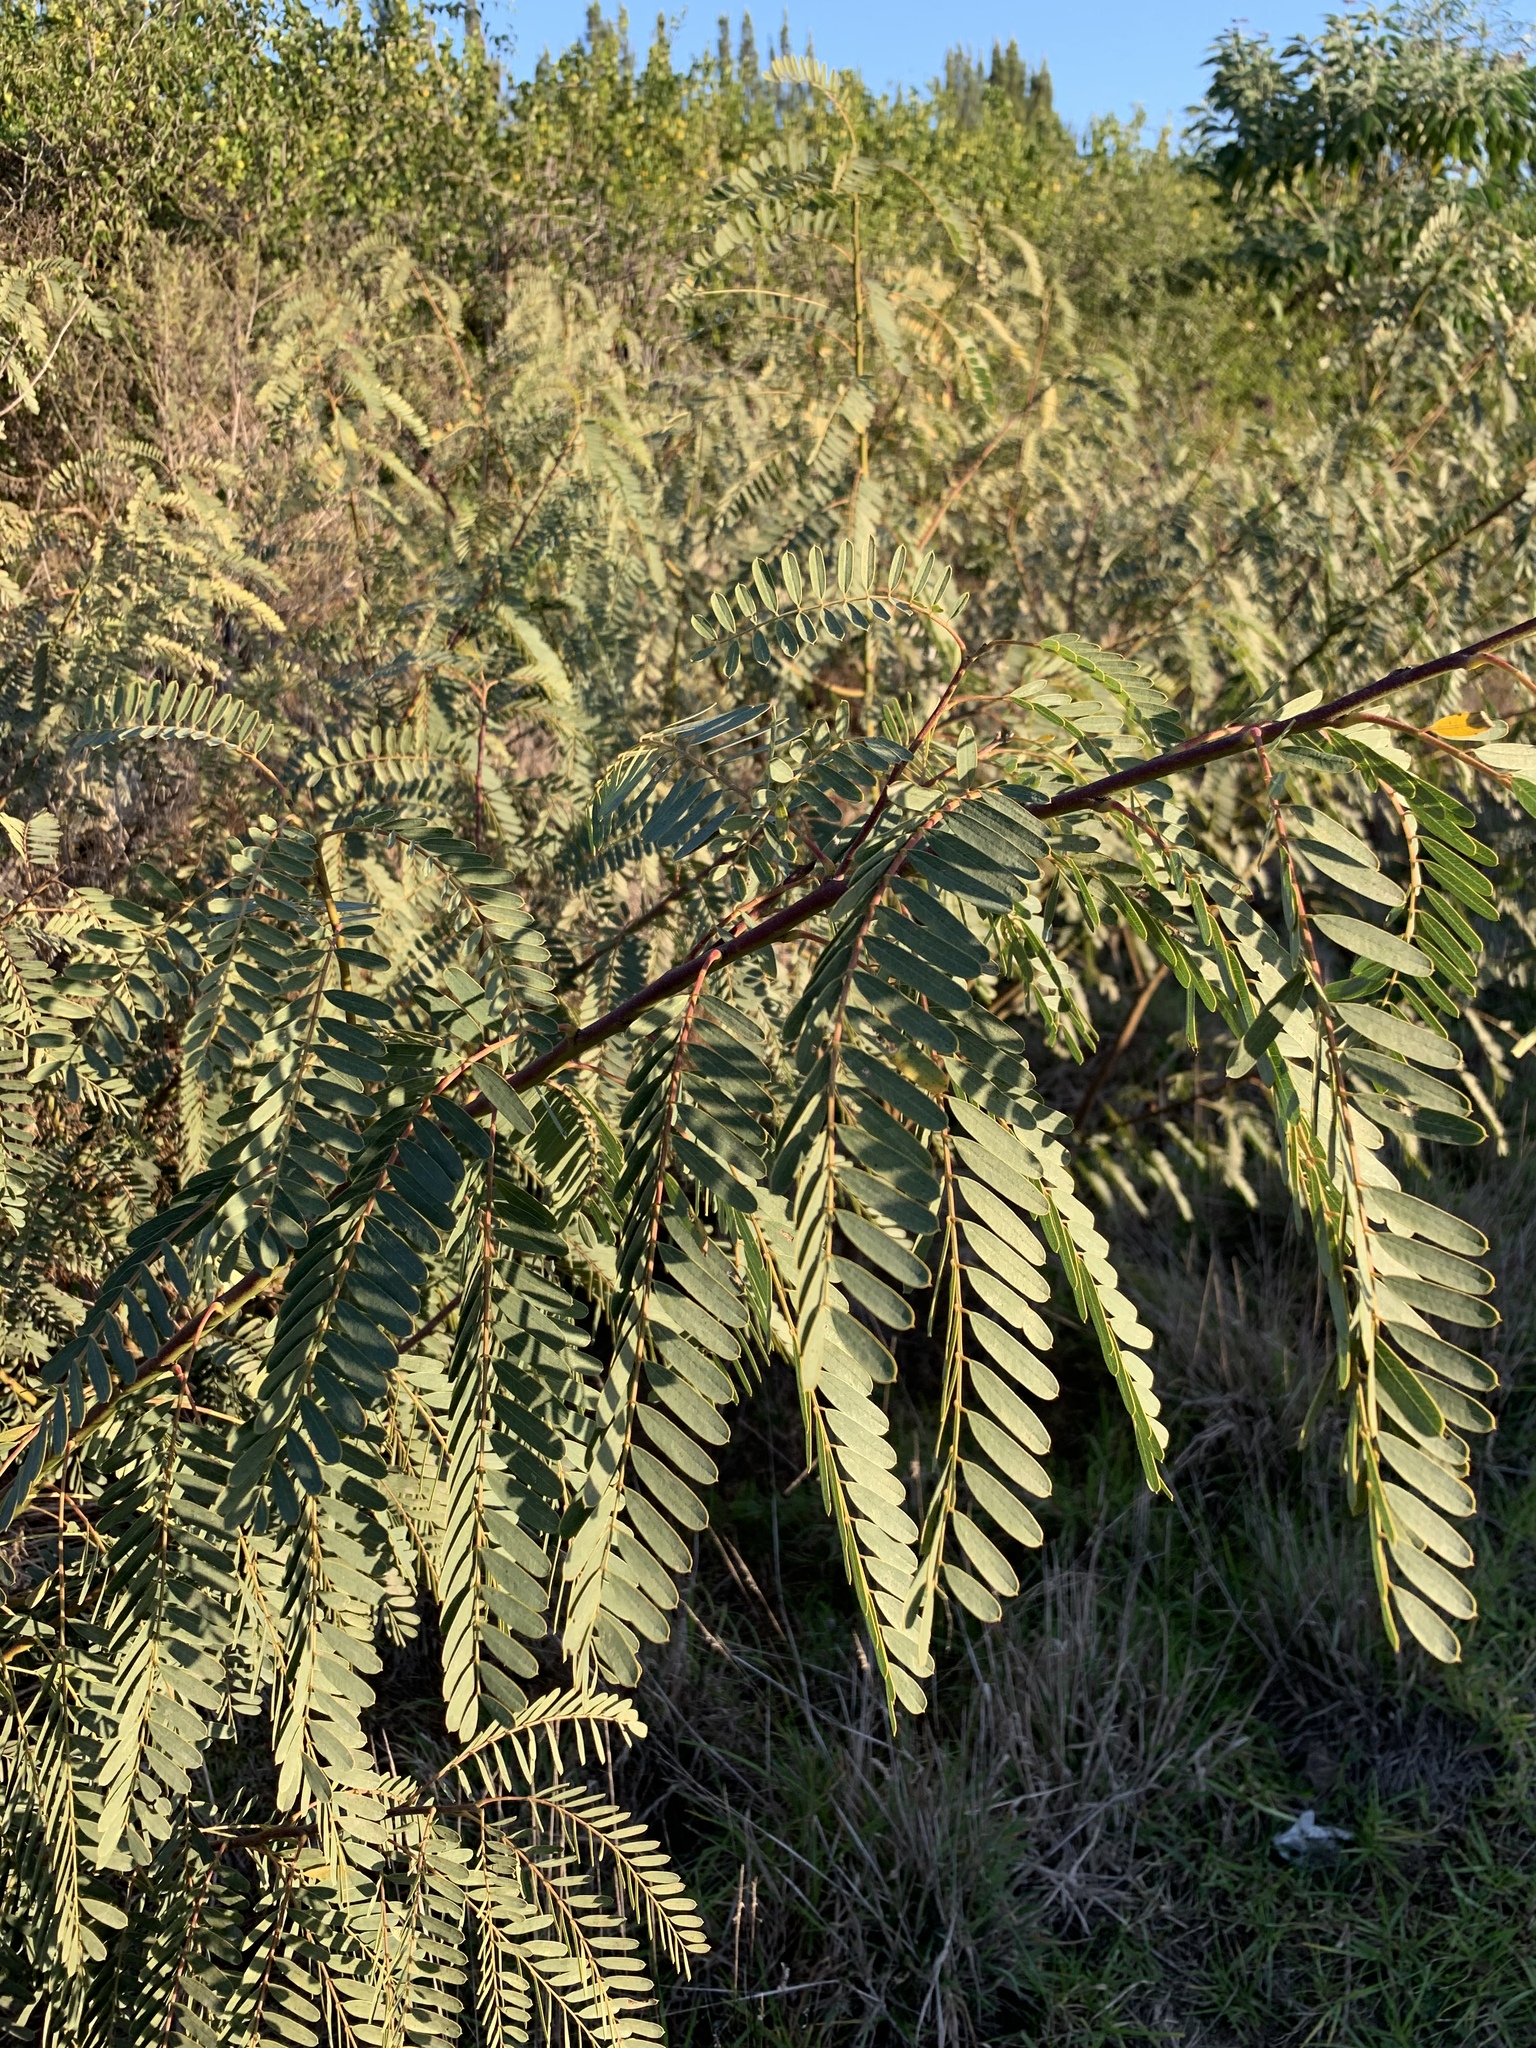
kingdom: Plantae
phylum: Tracheophyta
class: Magnoliopsida
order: Fabales
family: Fabaceae
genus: Sesbania
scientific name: Sesbania punicea
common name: Rattlebox
